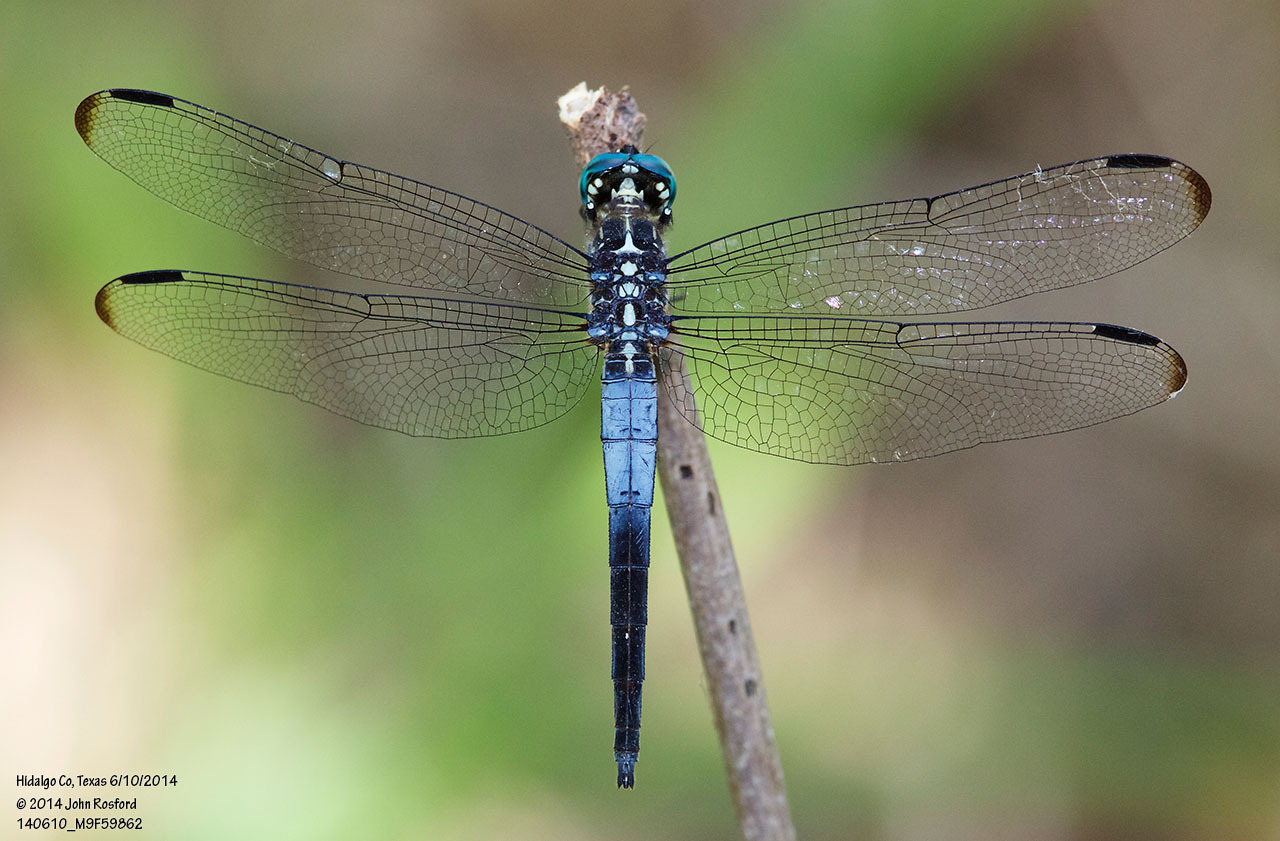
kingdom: Animalia
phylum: Arthropoda
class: Insecta
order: Odonata
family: Libellulidae
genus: Cannaphila
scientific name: Cannaphila insularis
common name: Gray-waisted skimmer
